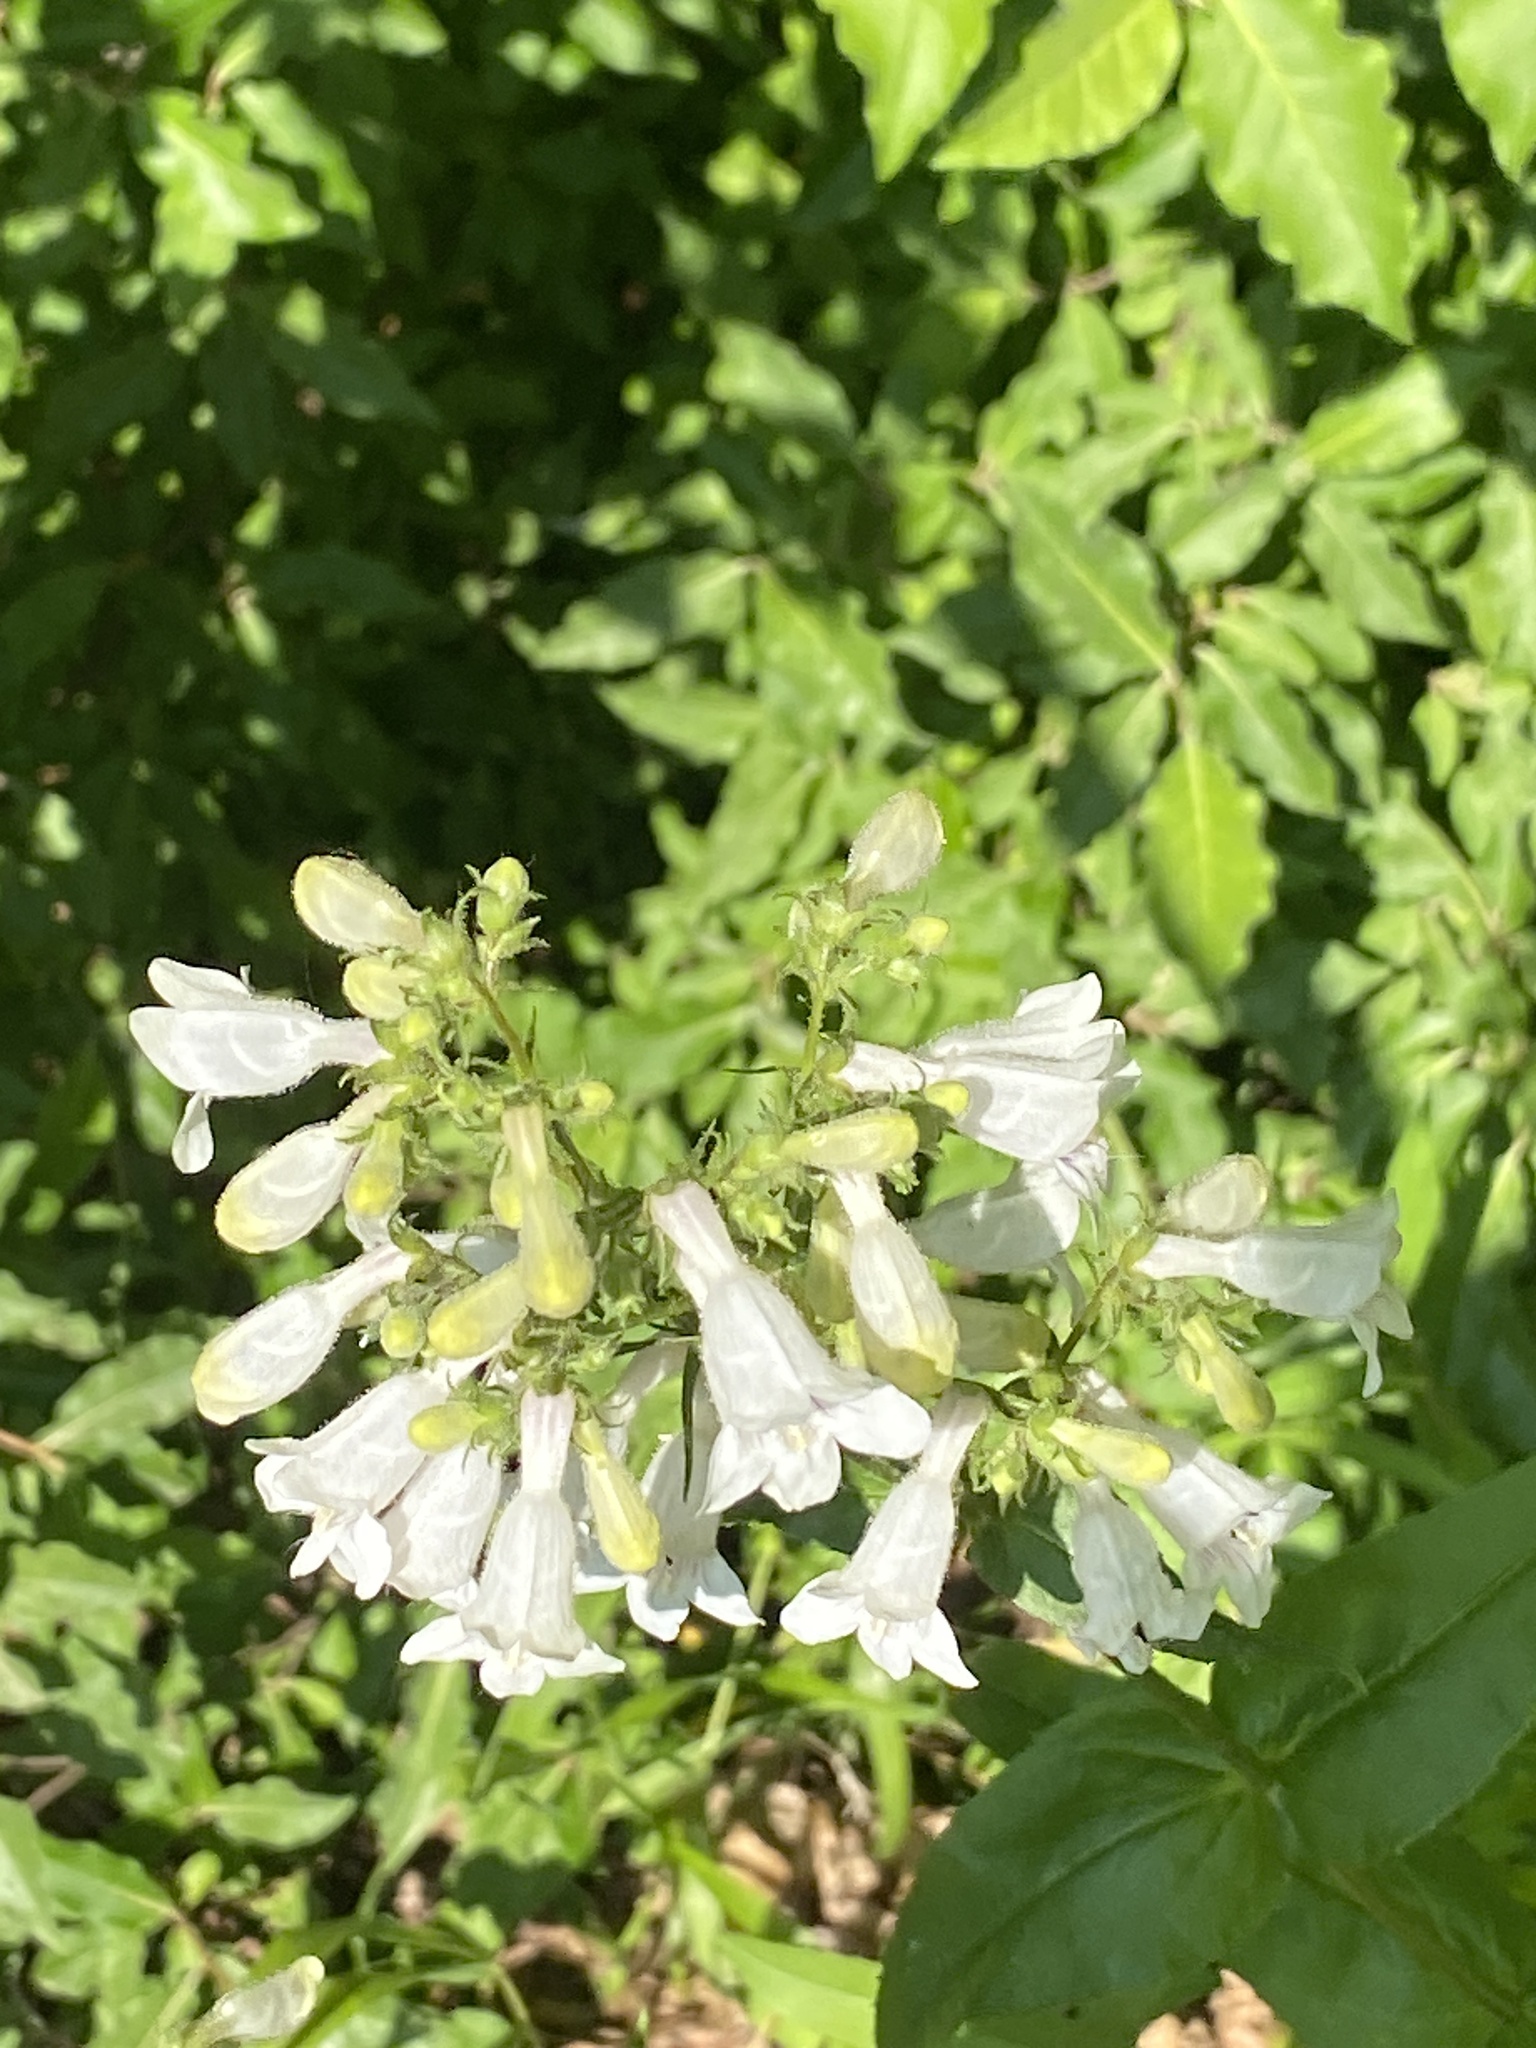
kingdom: Plantae
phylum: Tracheophyta
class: Magnoliopsida
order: Lamiales
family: Plantaginaceae
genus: Penstemon
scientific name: Penstemon digitalis
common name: Foxglove beardtongue
